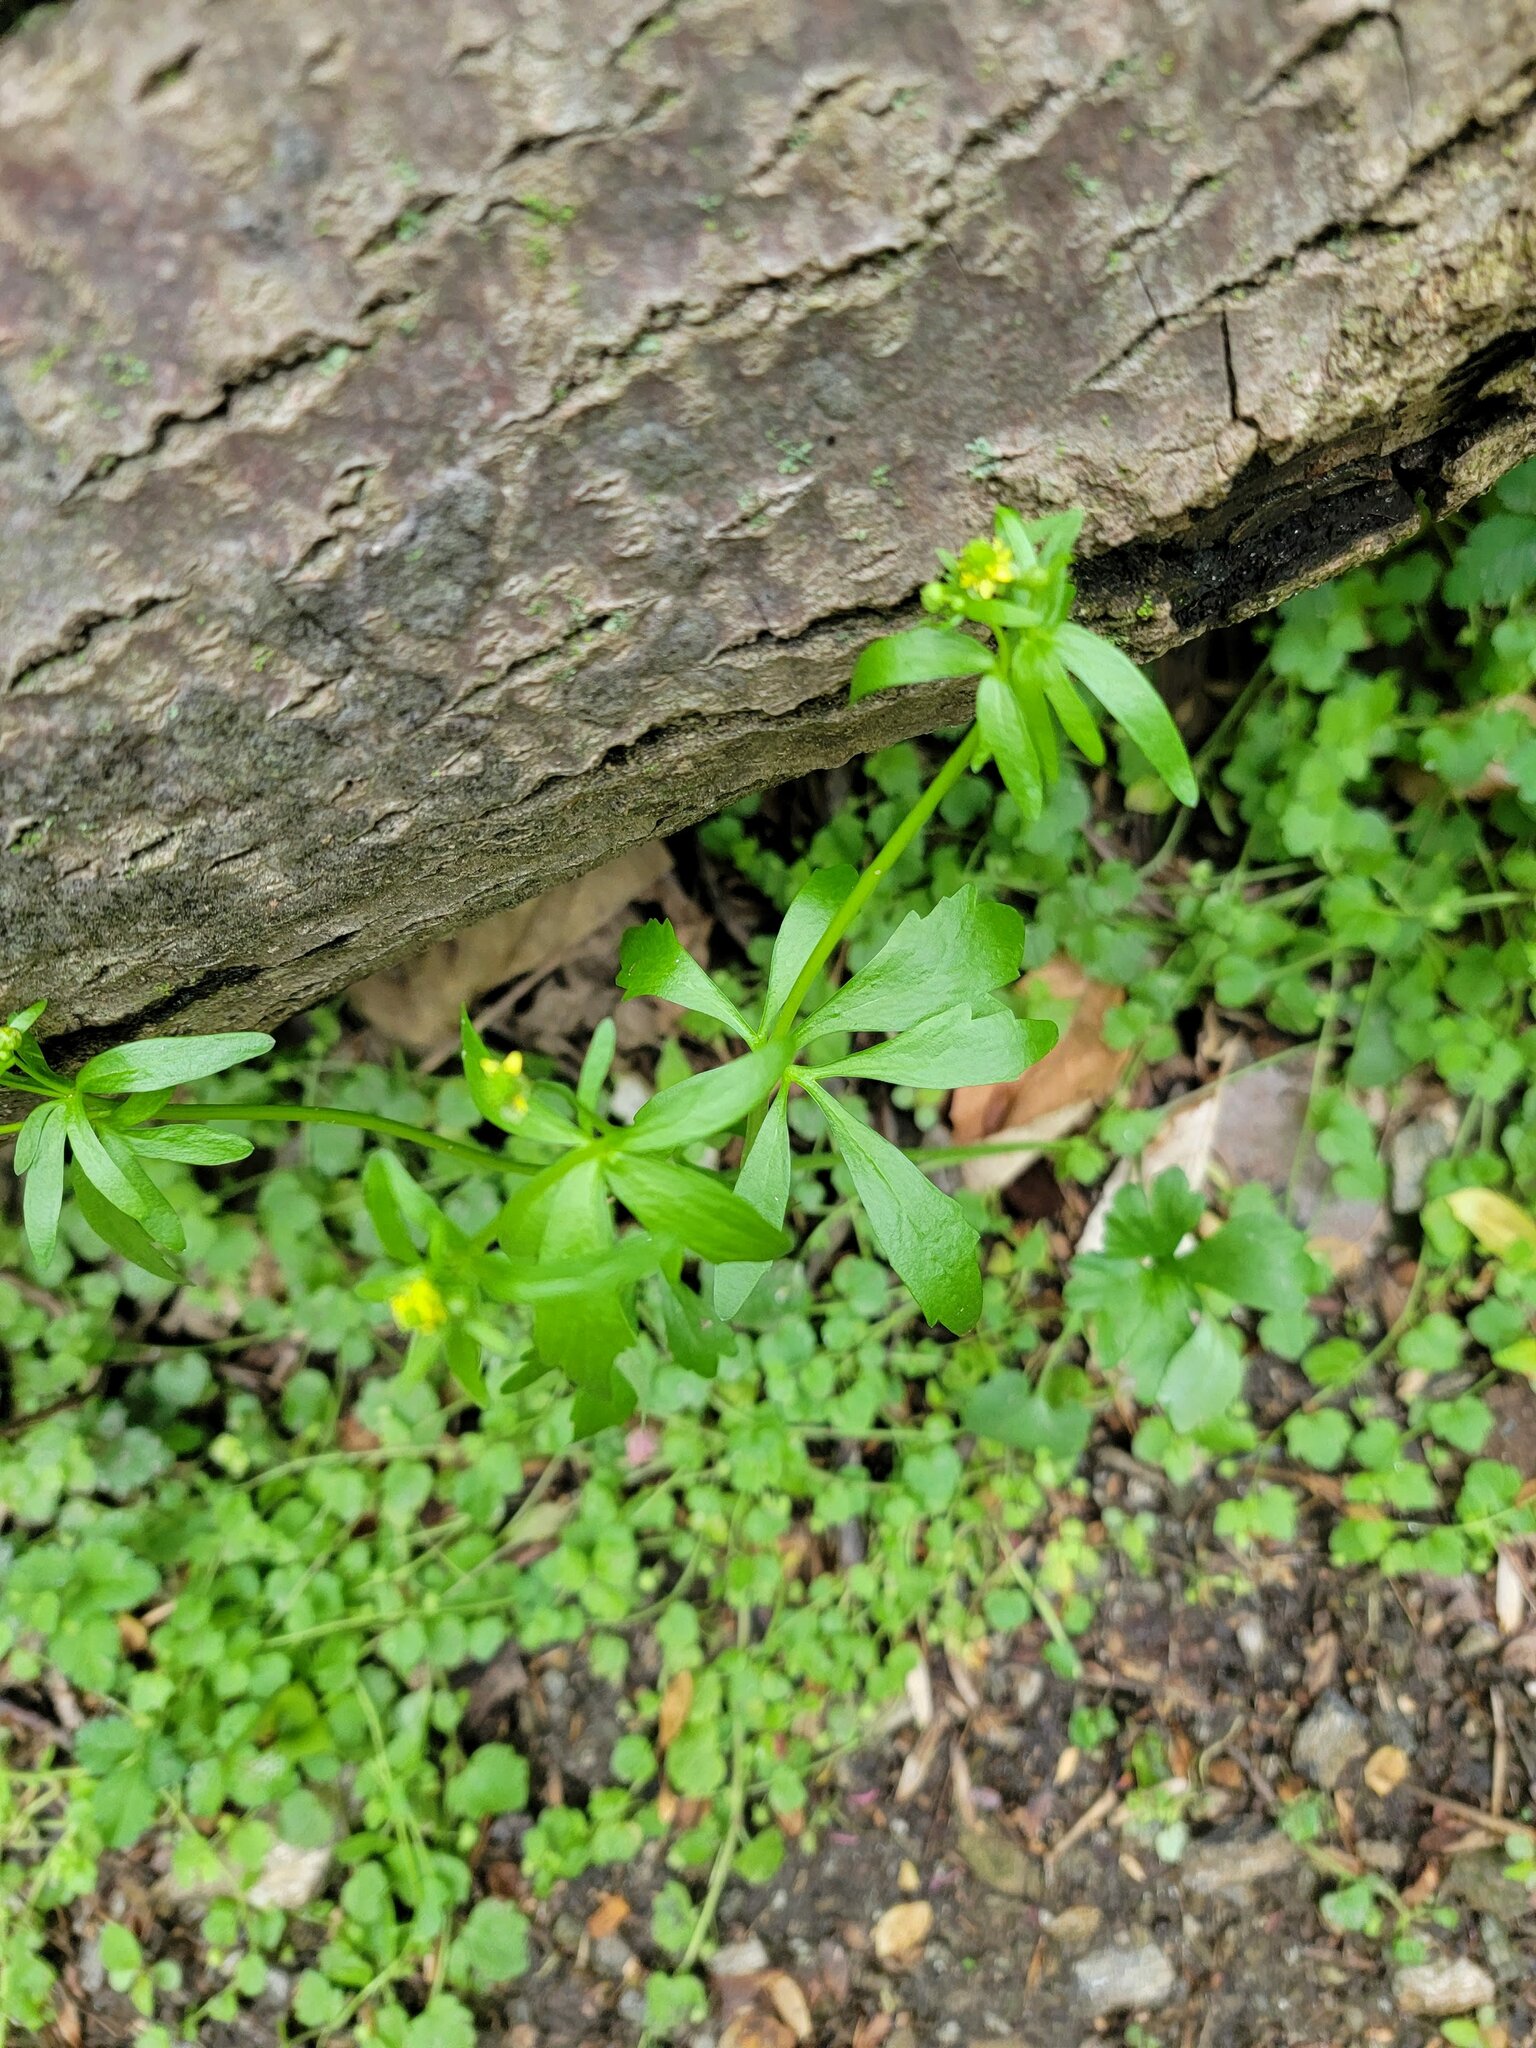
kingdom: Plantae
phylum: Tracheophyta
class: Magnoliopsida
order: Ranunculales
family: Ranunculaceae
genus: Ranunculus
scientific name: Ranunculus abortivus
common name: Early wood buttercup
